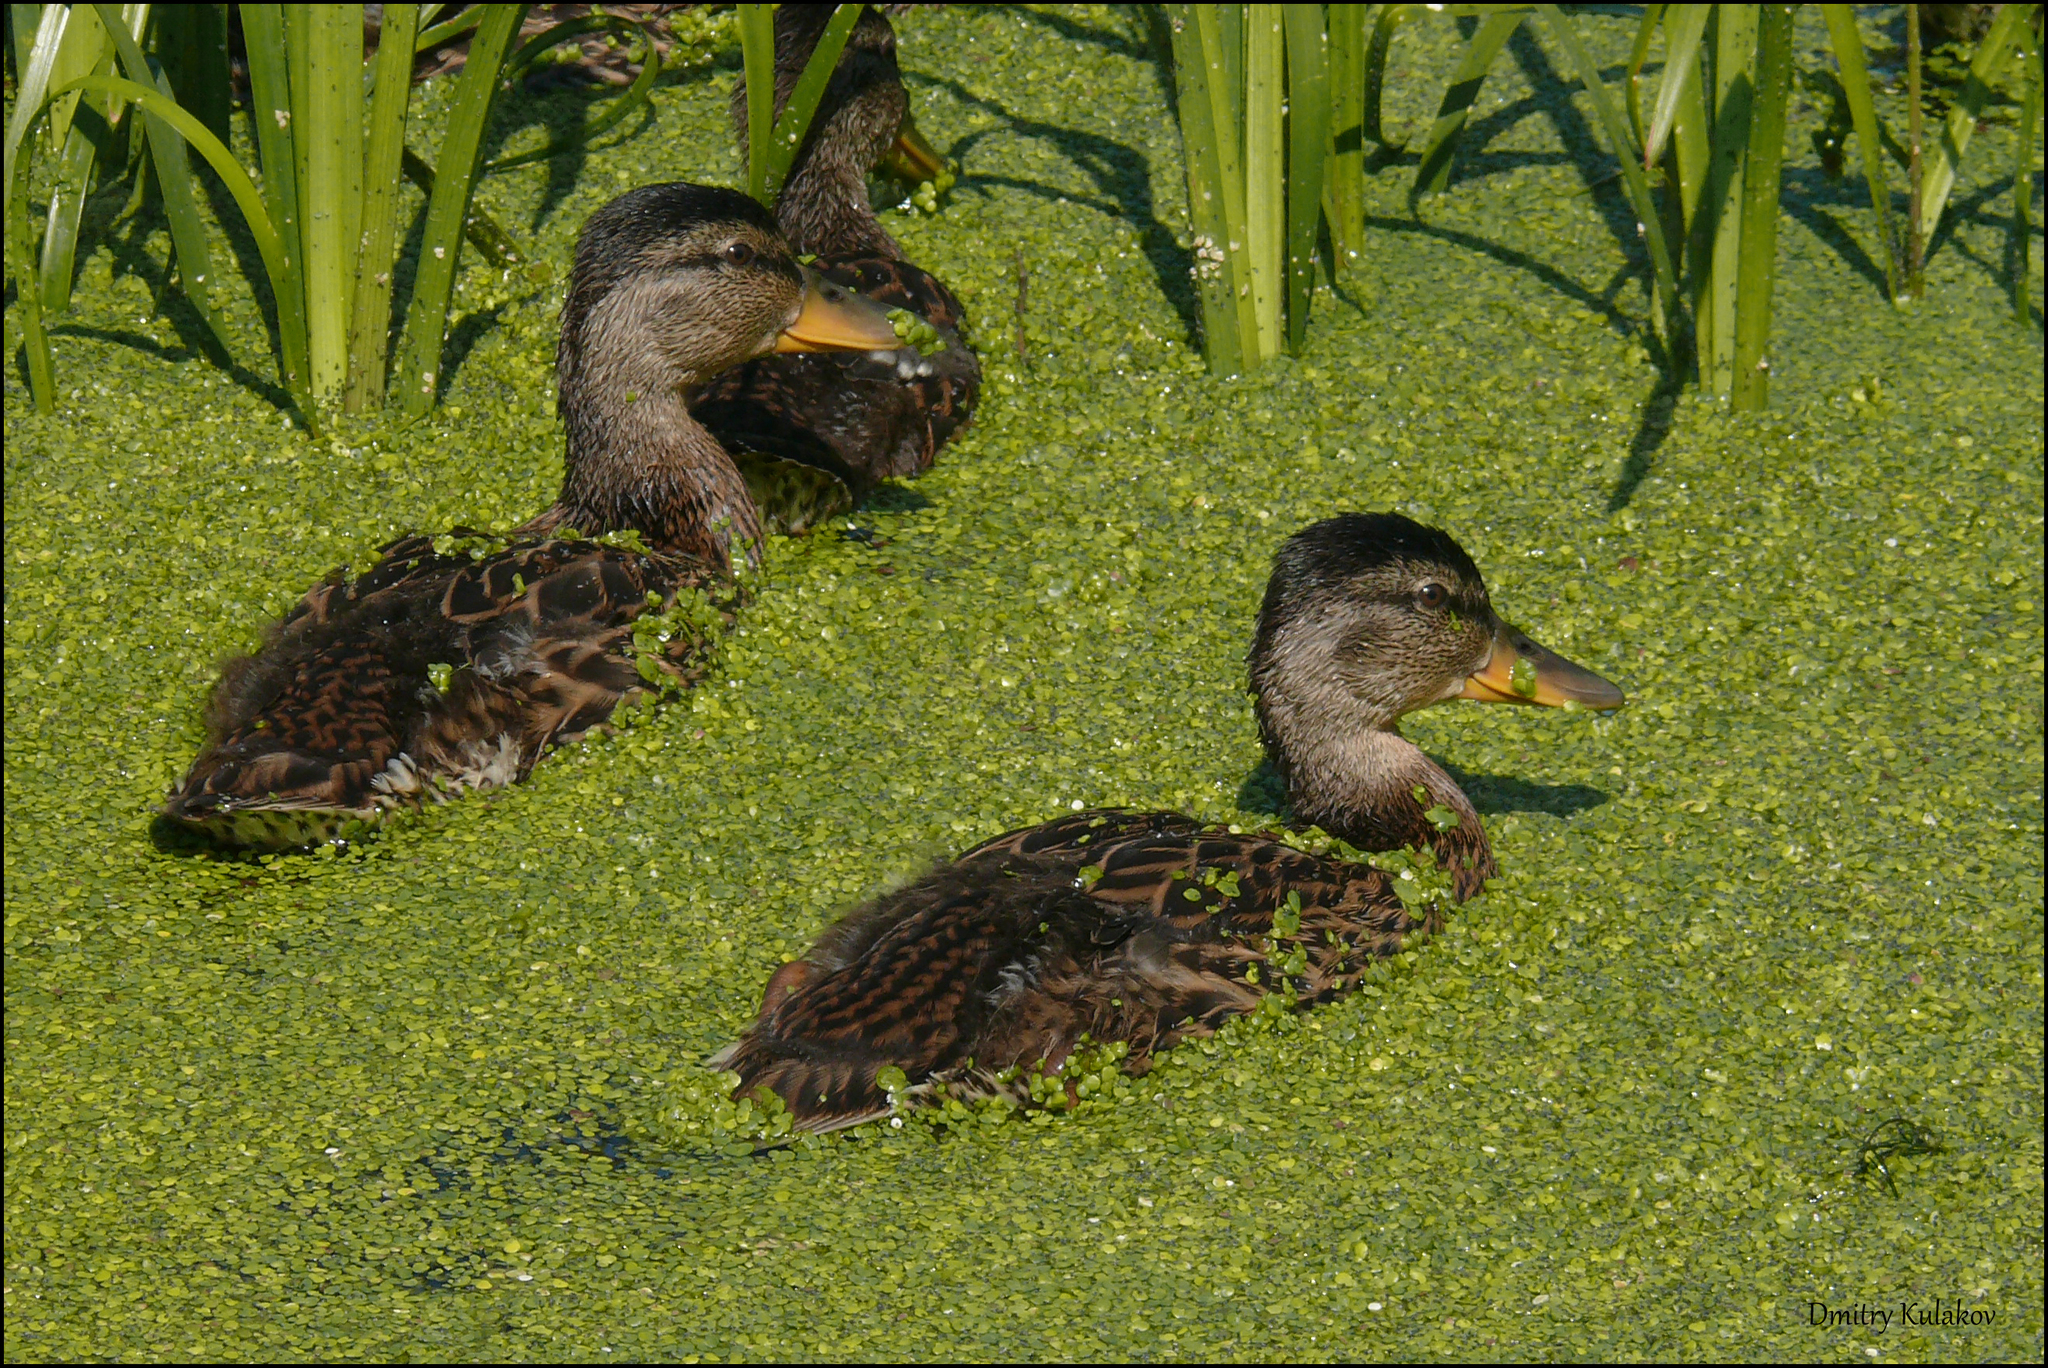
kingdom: Animalia
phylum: Chordata
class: Aves
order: Anseriformes
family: Anatidae
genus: Anas
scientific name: Anas platyrhynchos
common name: Mallard
